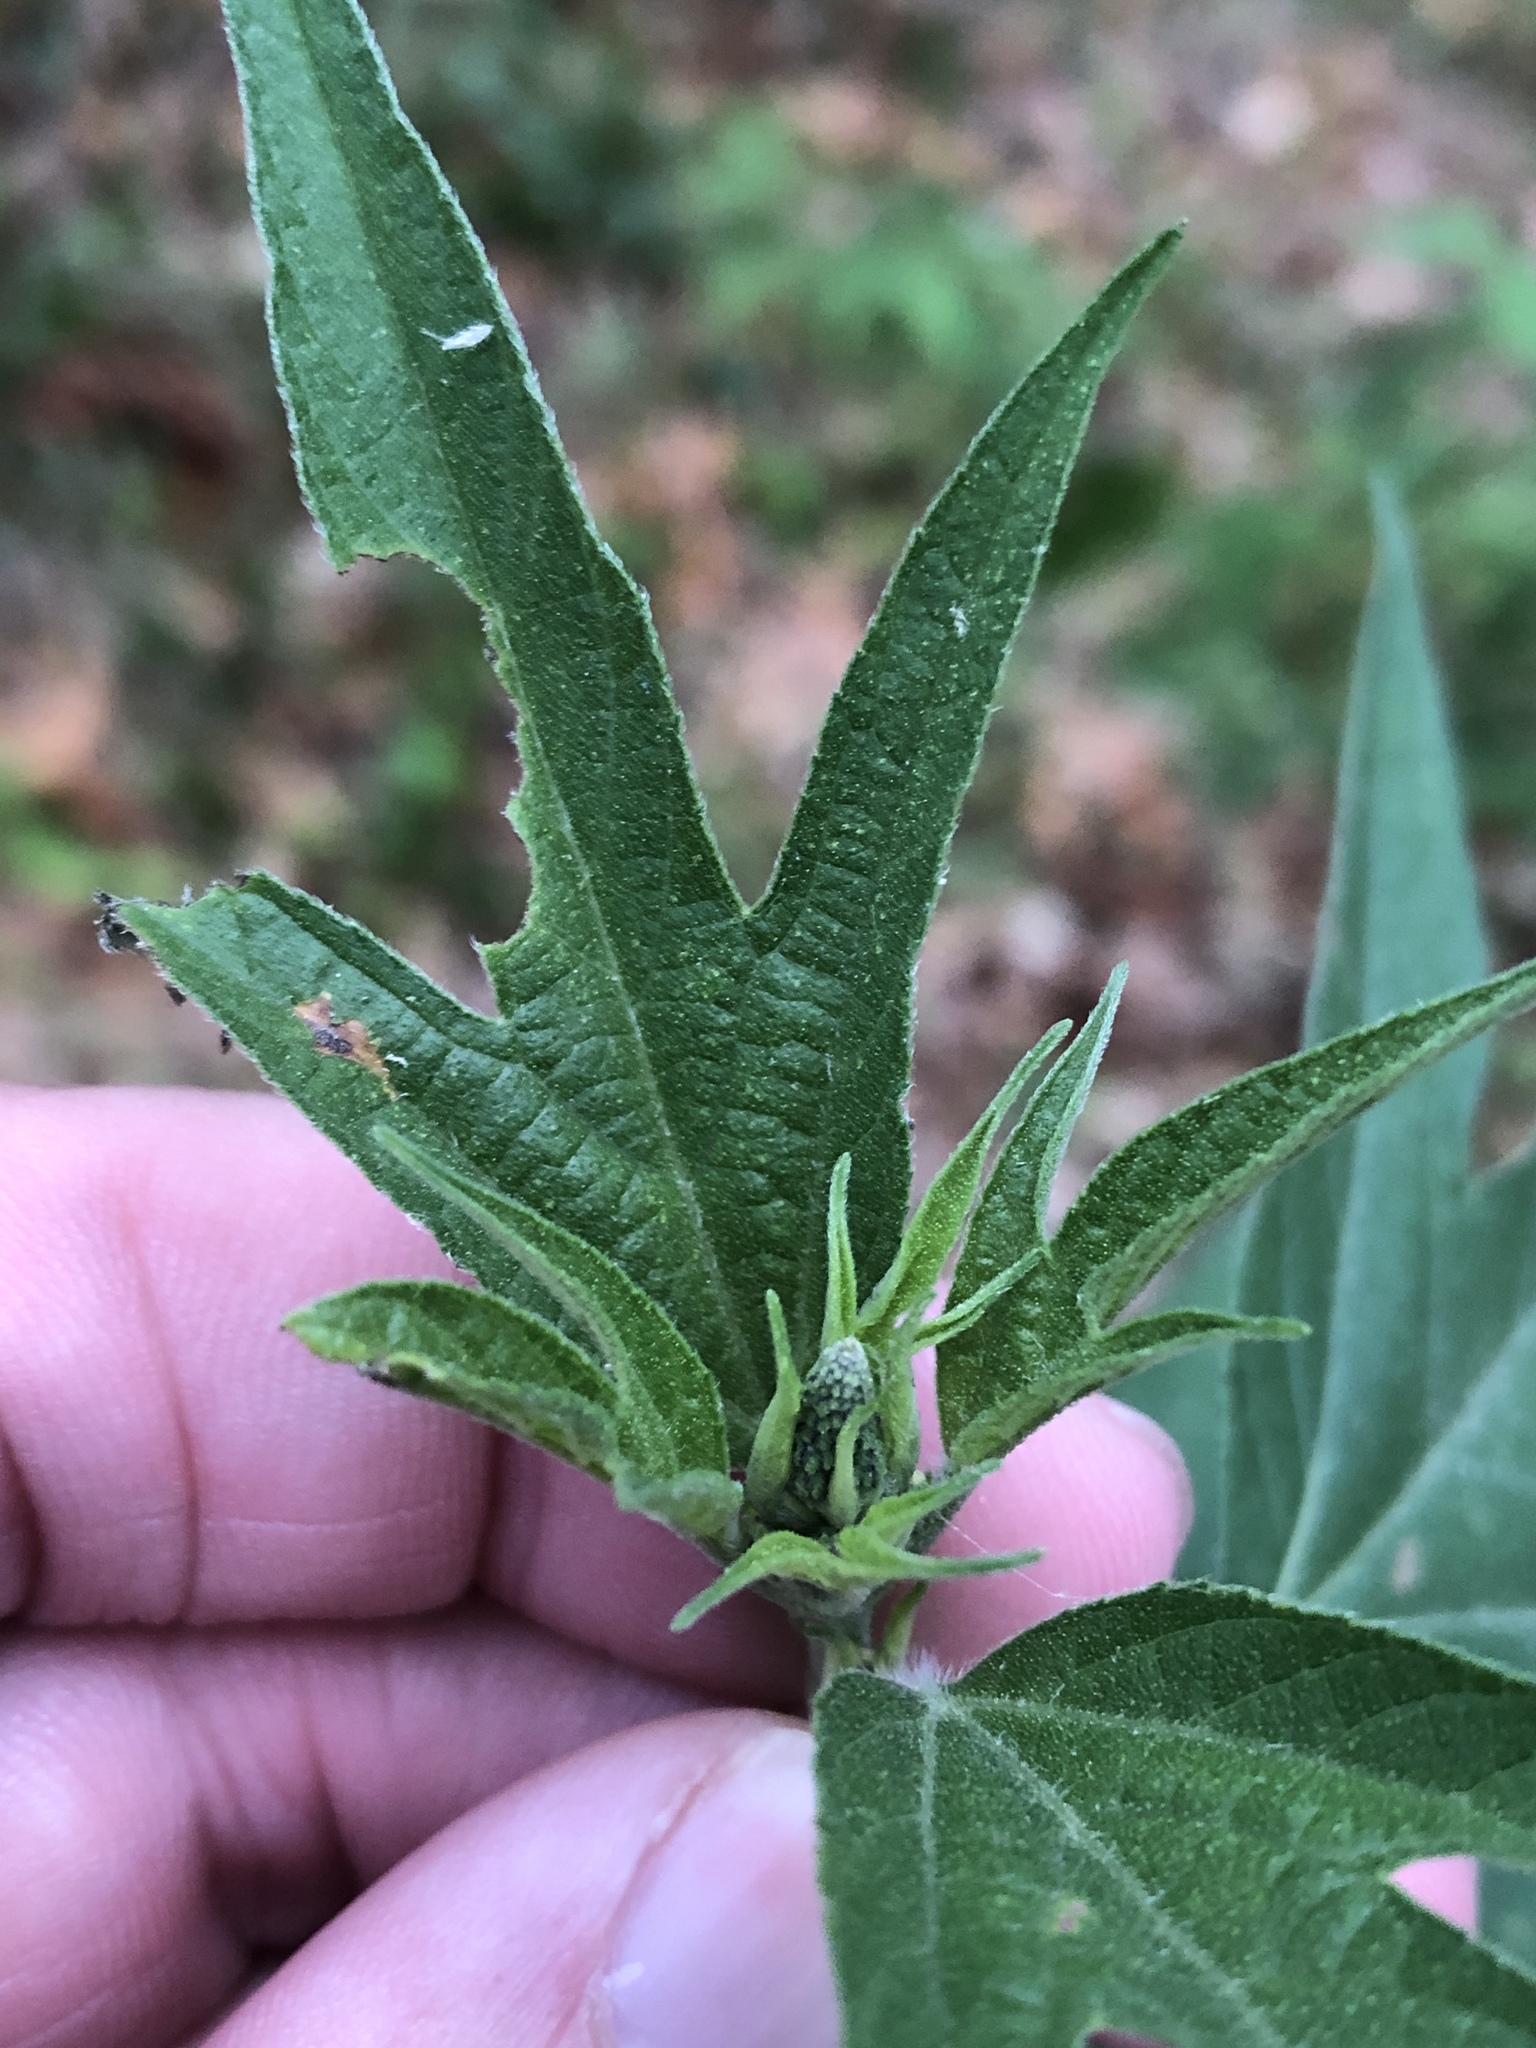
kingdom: Plantae
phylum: Tracheophyta
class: Magnoliopsida
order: Asterales
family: Asteraceae
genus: Ambrosia
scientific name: Ambrosia trifida
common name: Giant ragweed
